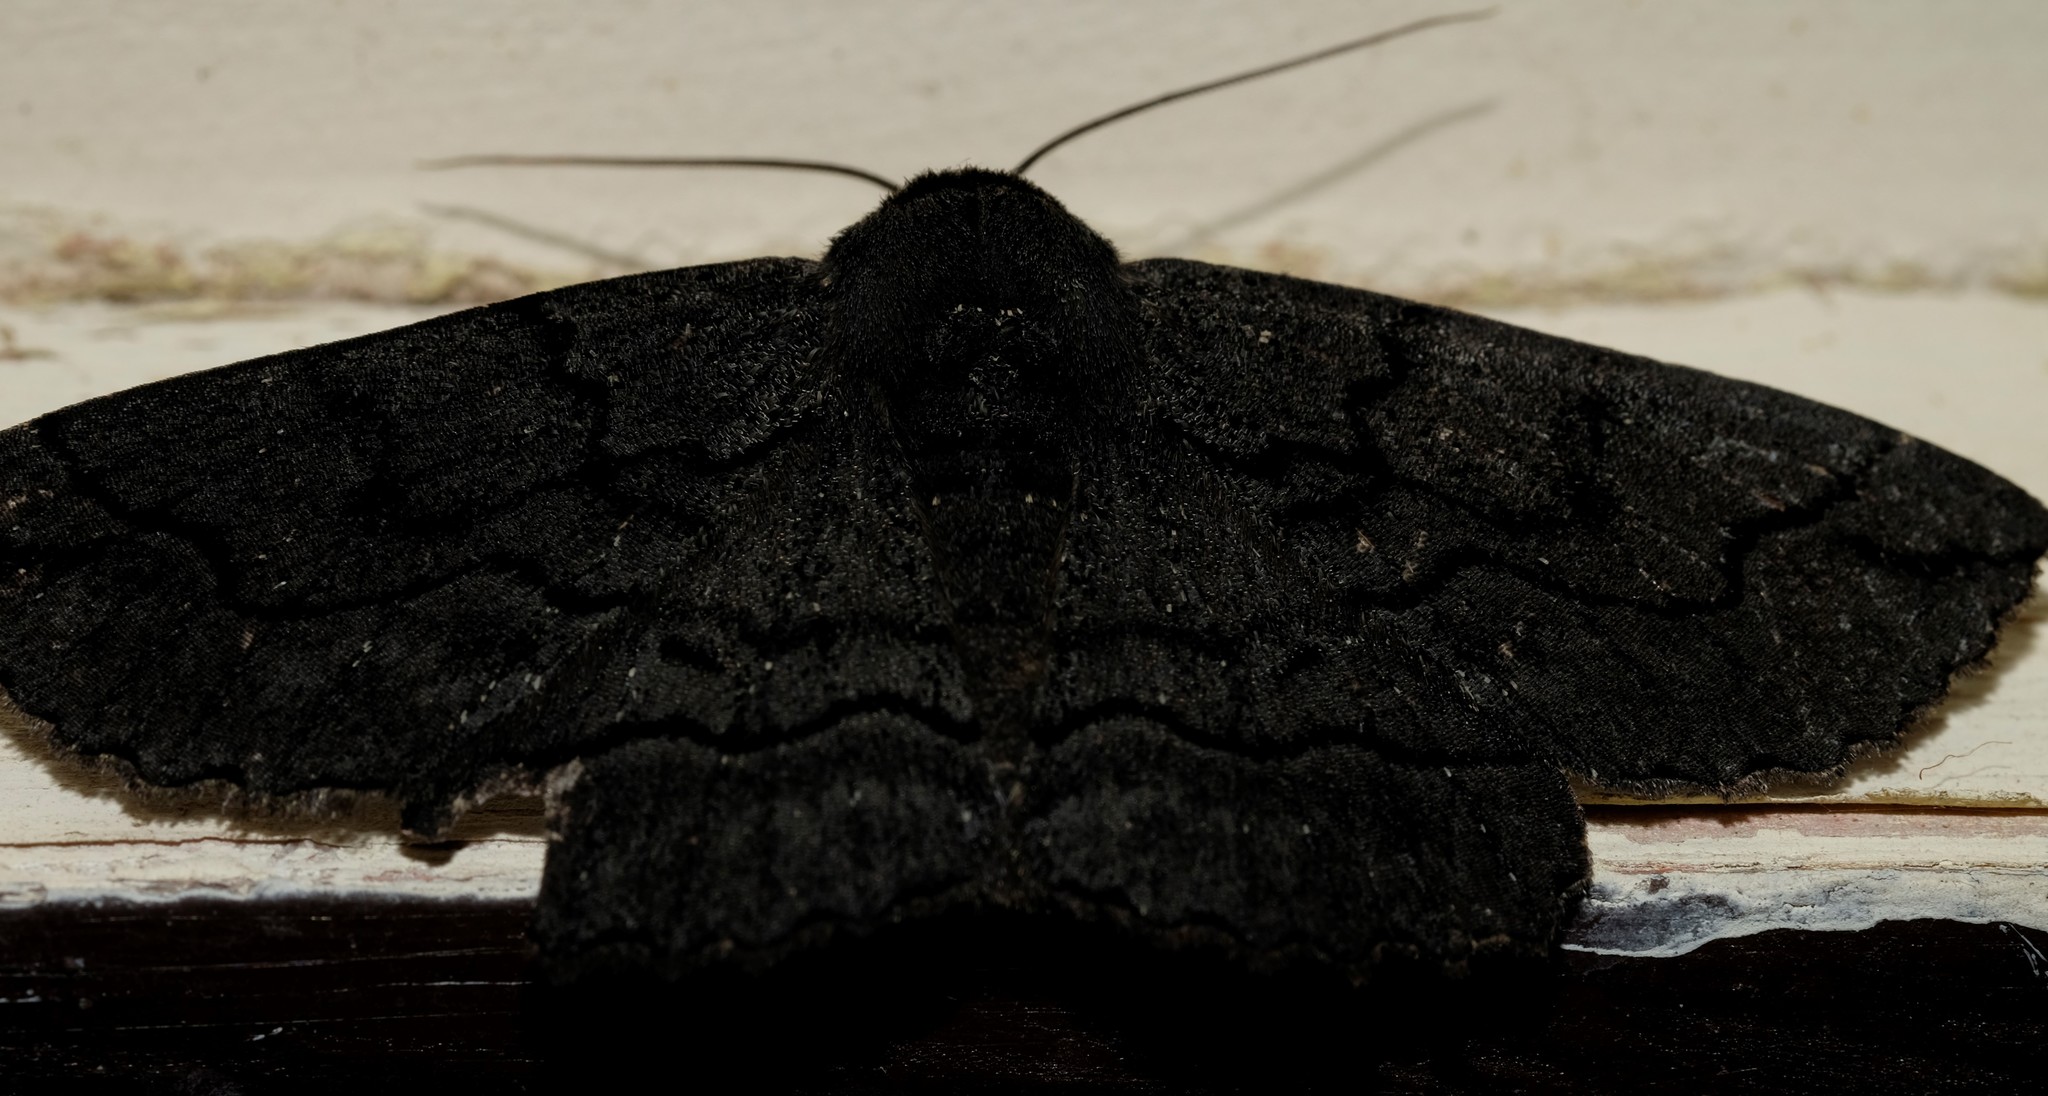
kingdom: Animalia
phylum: Arthropoda
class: Insecta
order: Lepidoptera
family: Geometridae
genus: Melanodes
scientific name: Melanodes anthracitaria
